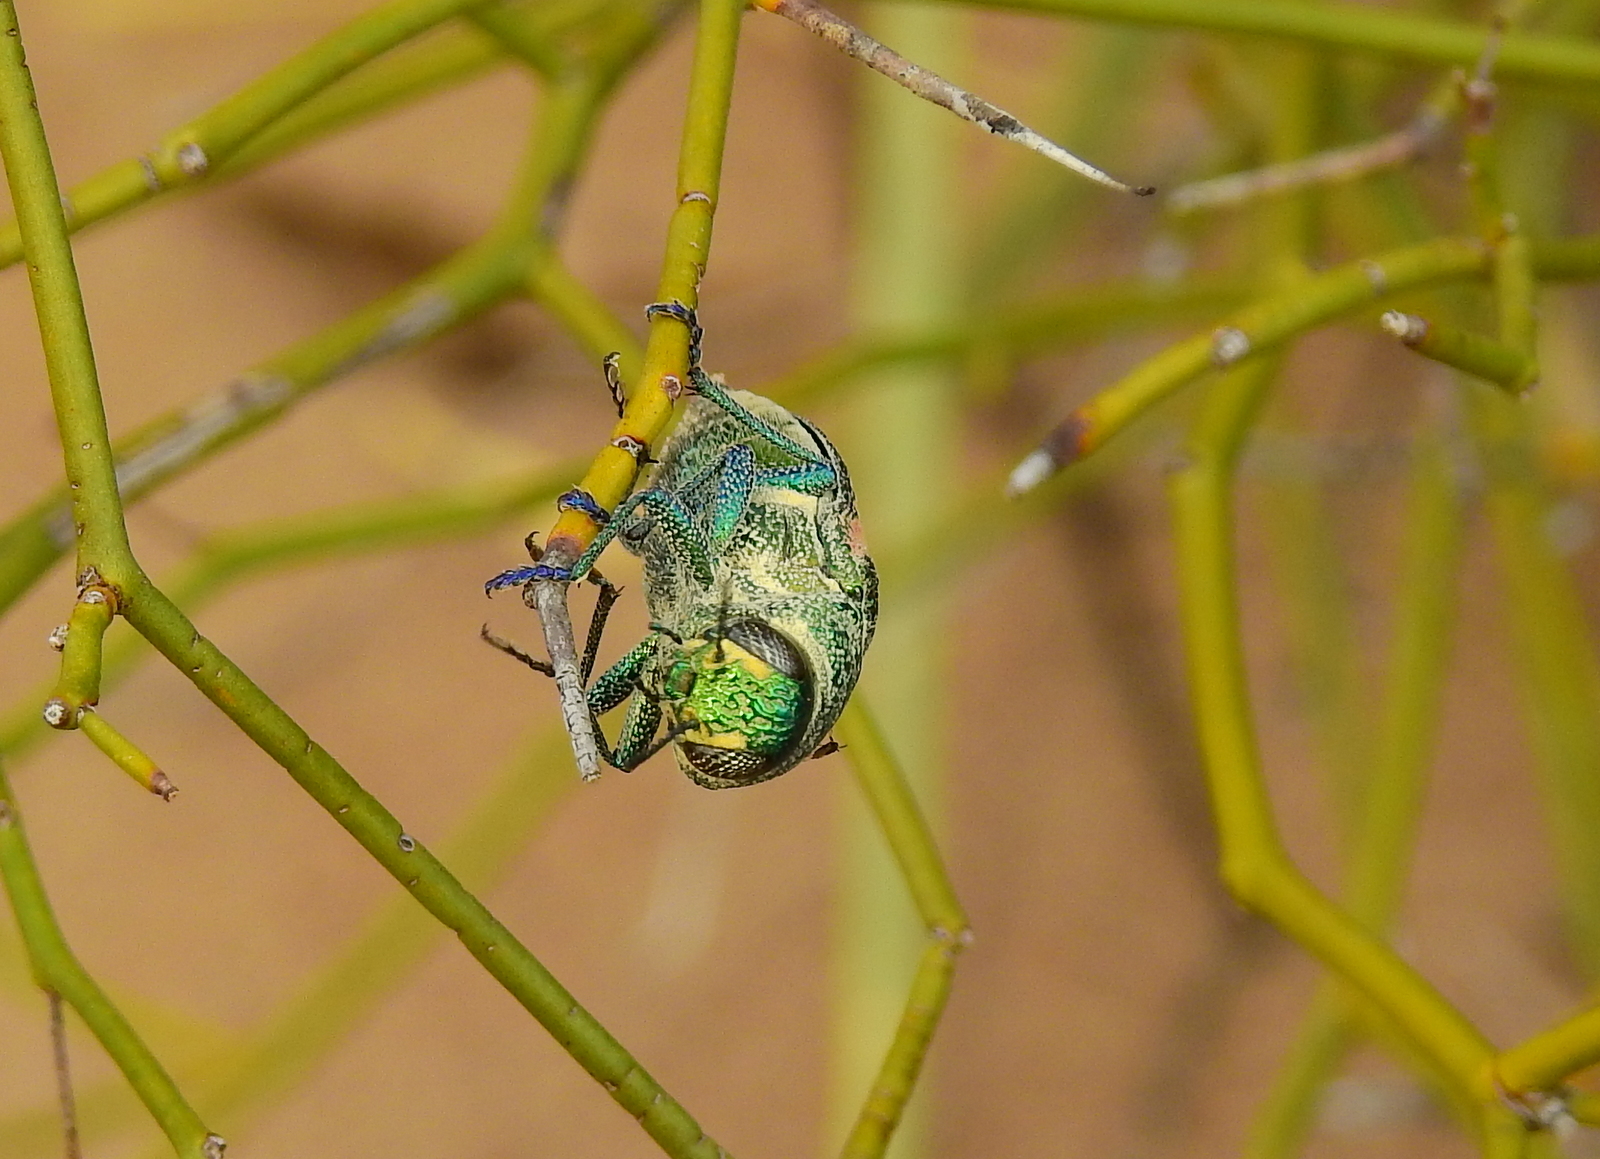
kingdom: Animalia
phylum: Arthropoda
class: Insecta
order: Coleoptera
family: Buprestidae
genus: Lampetis
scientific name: Lampetis plagiata
